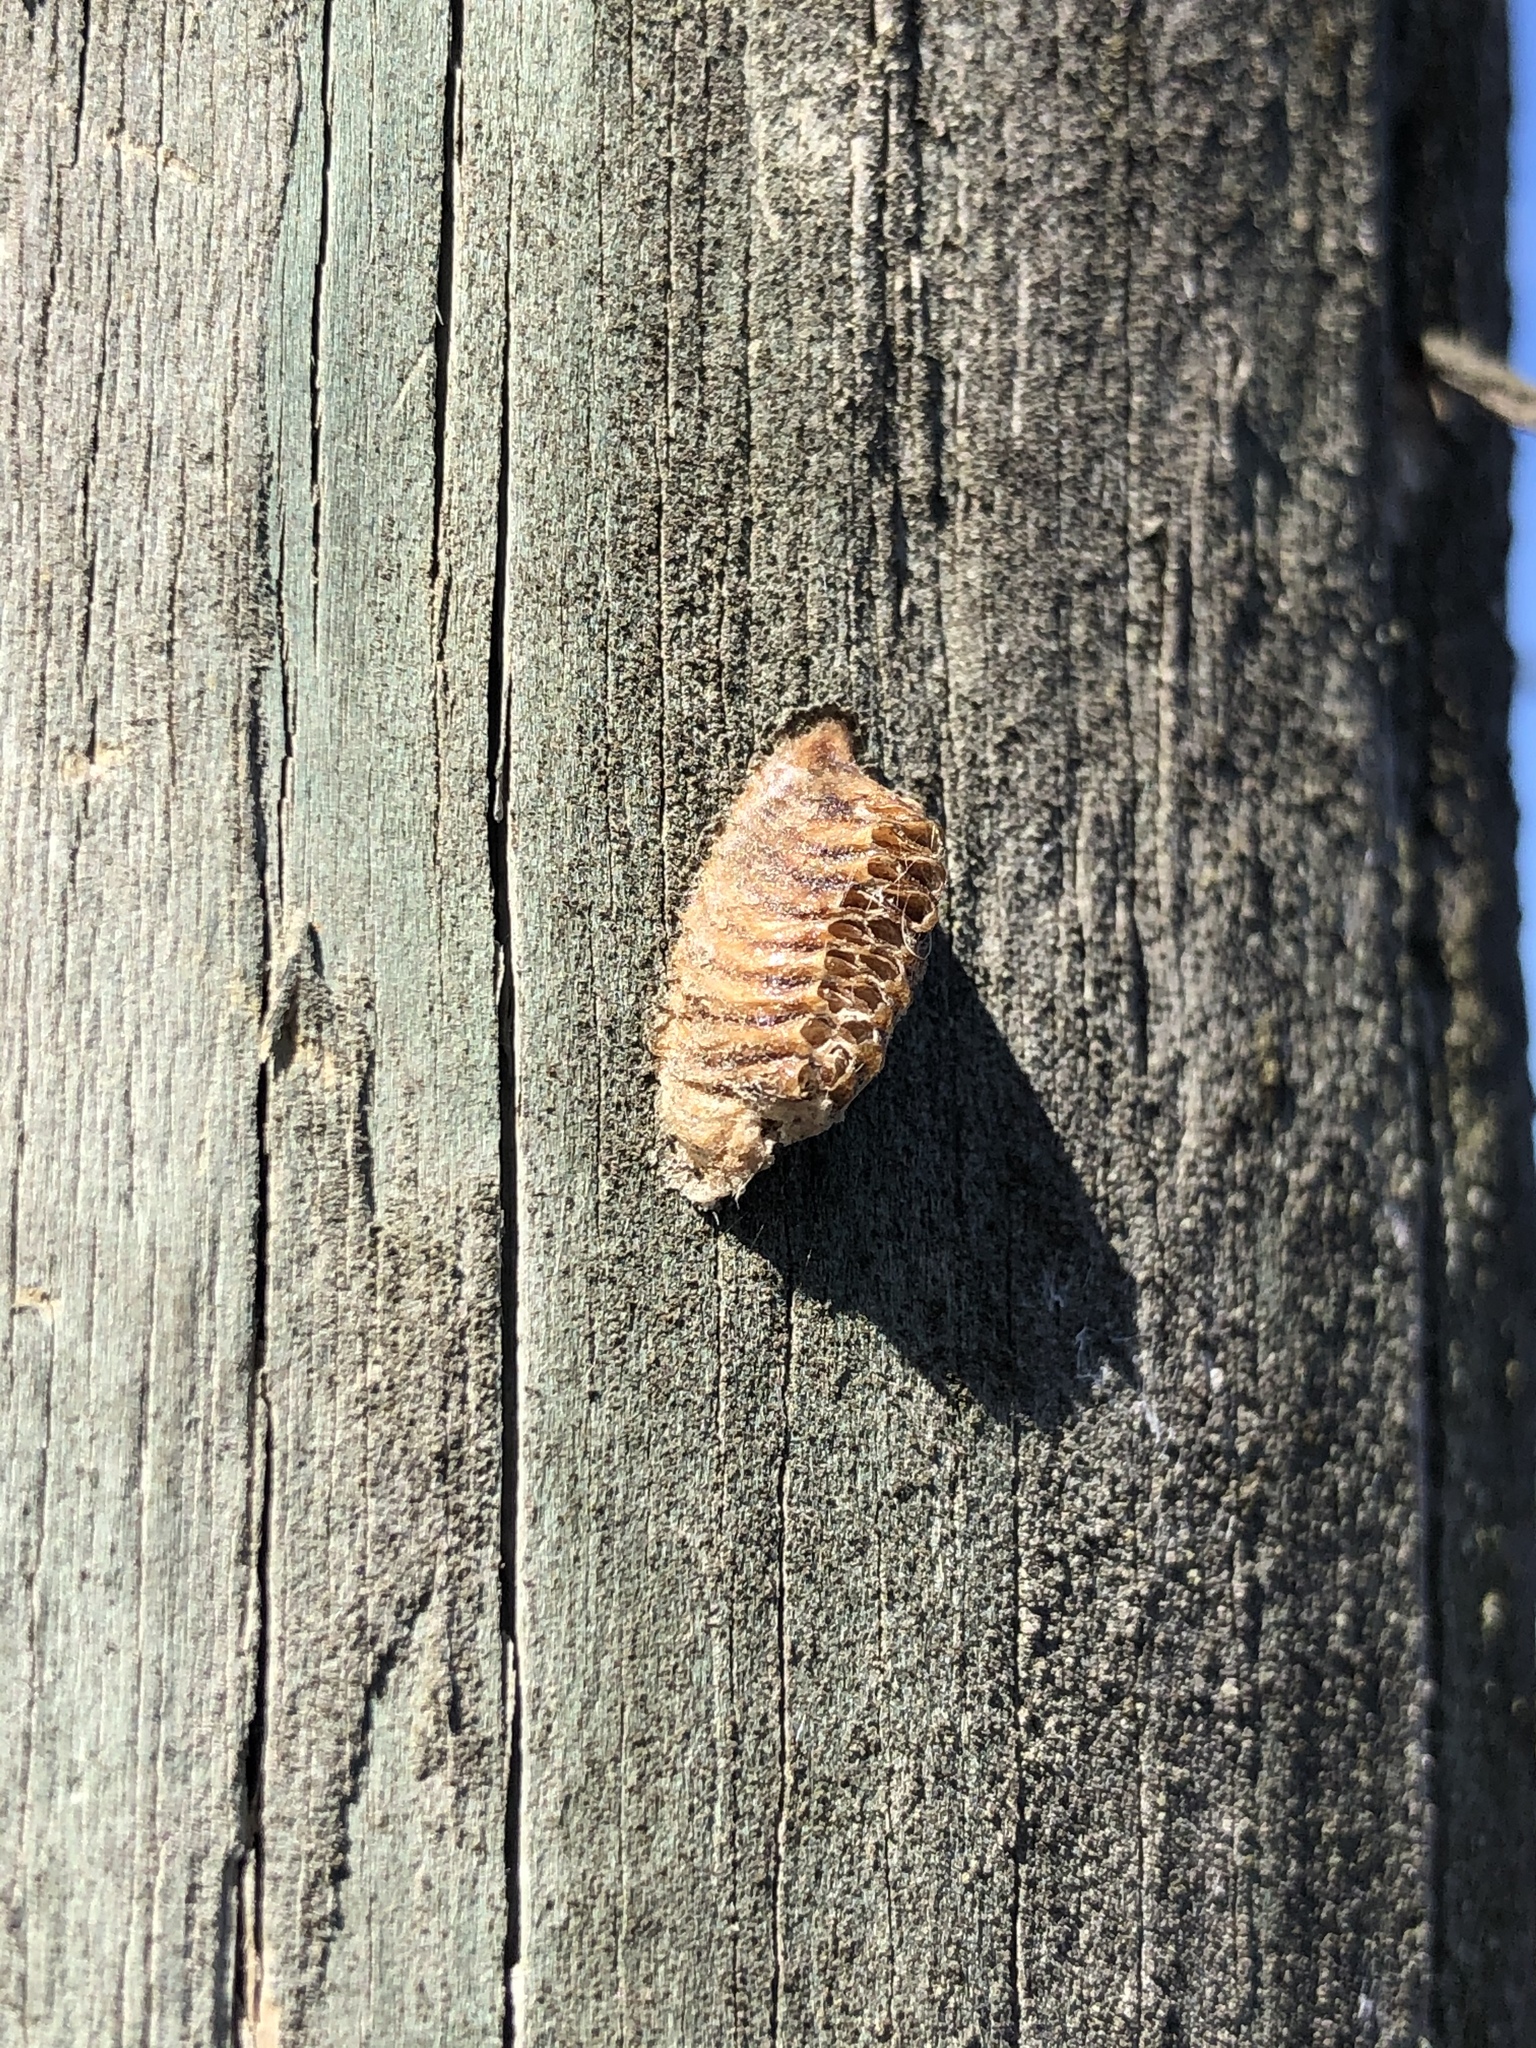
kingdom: Animalia
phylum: Arthropoda
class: Insecta
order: Mantodea
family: Mantidae
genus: Orthodera
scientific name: Orthodera novaezealandiae
